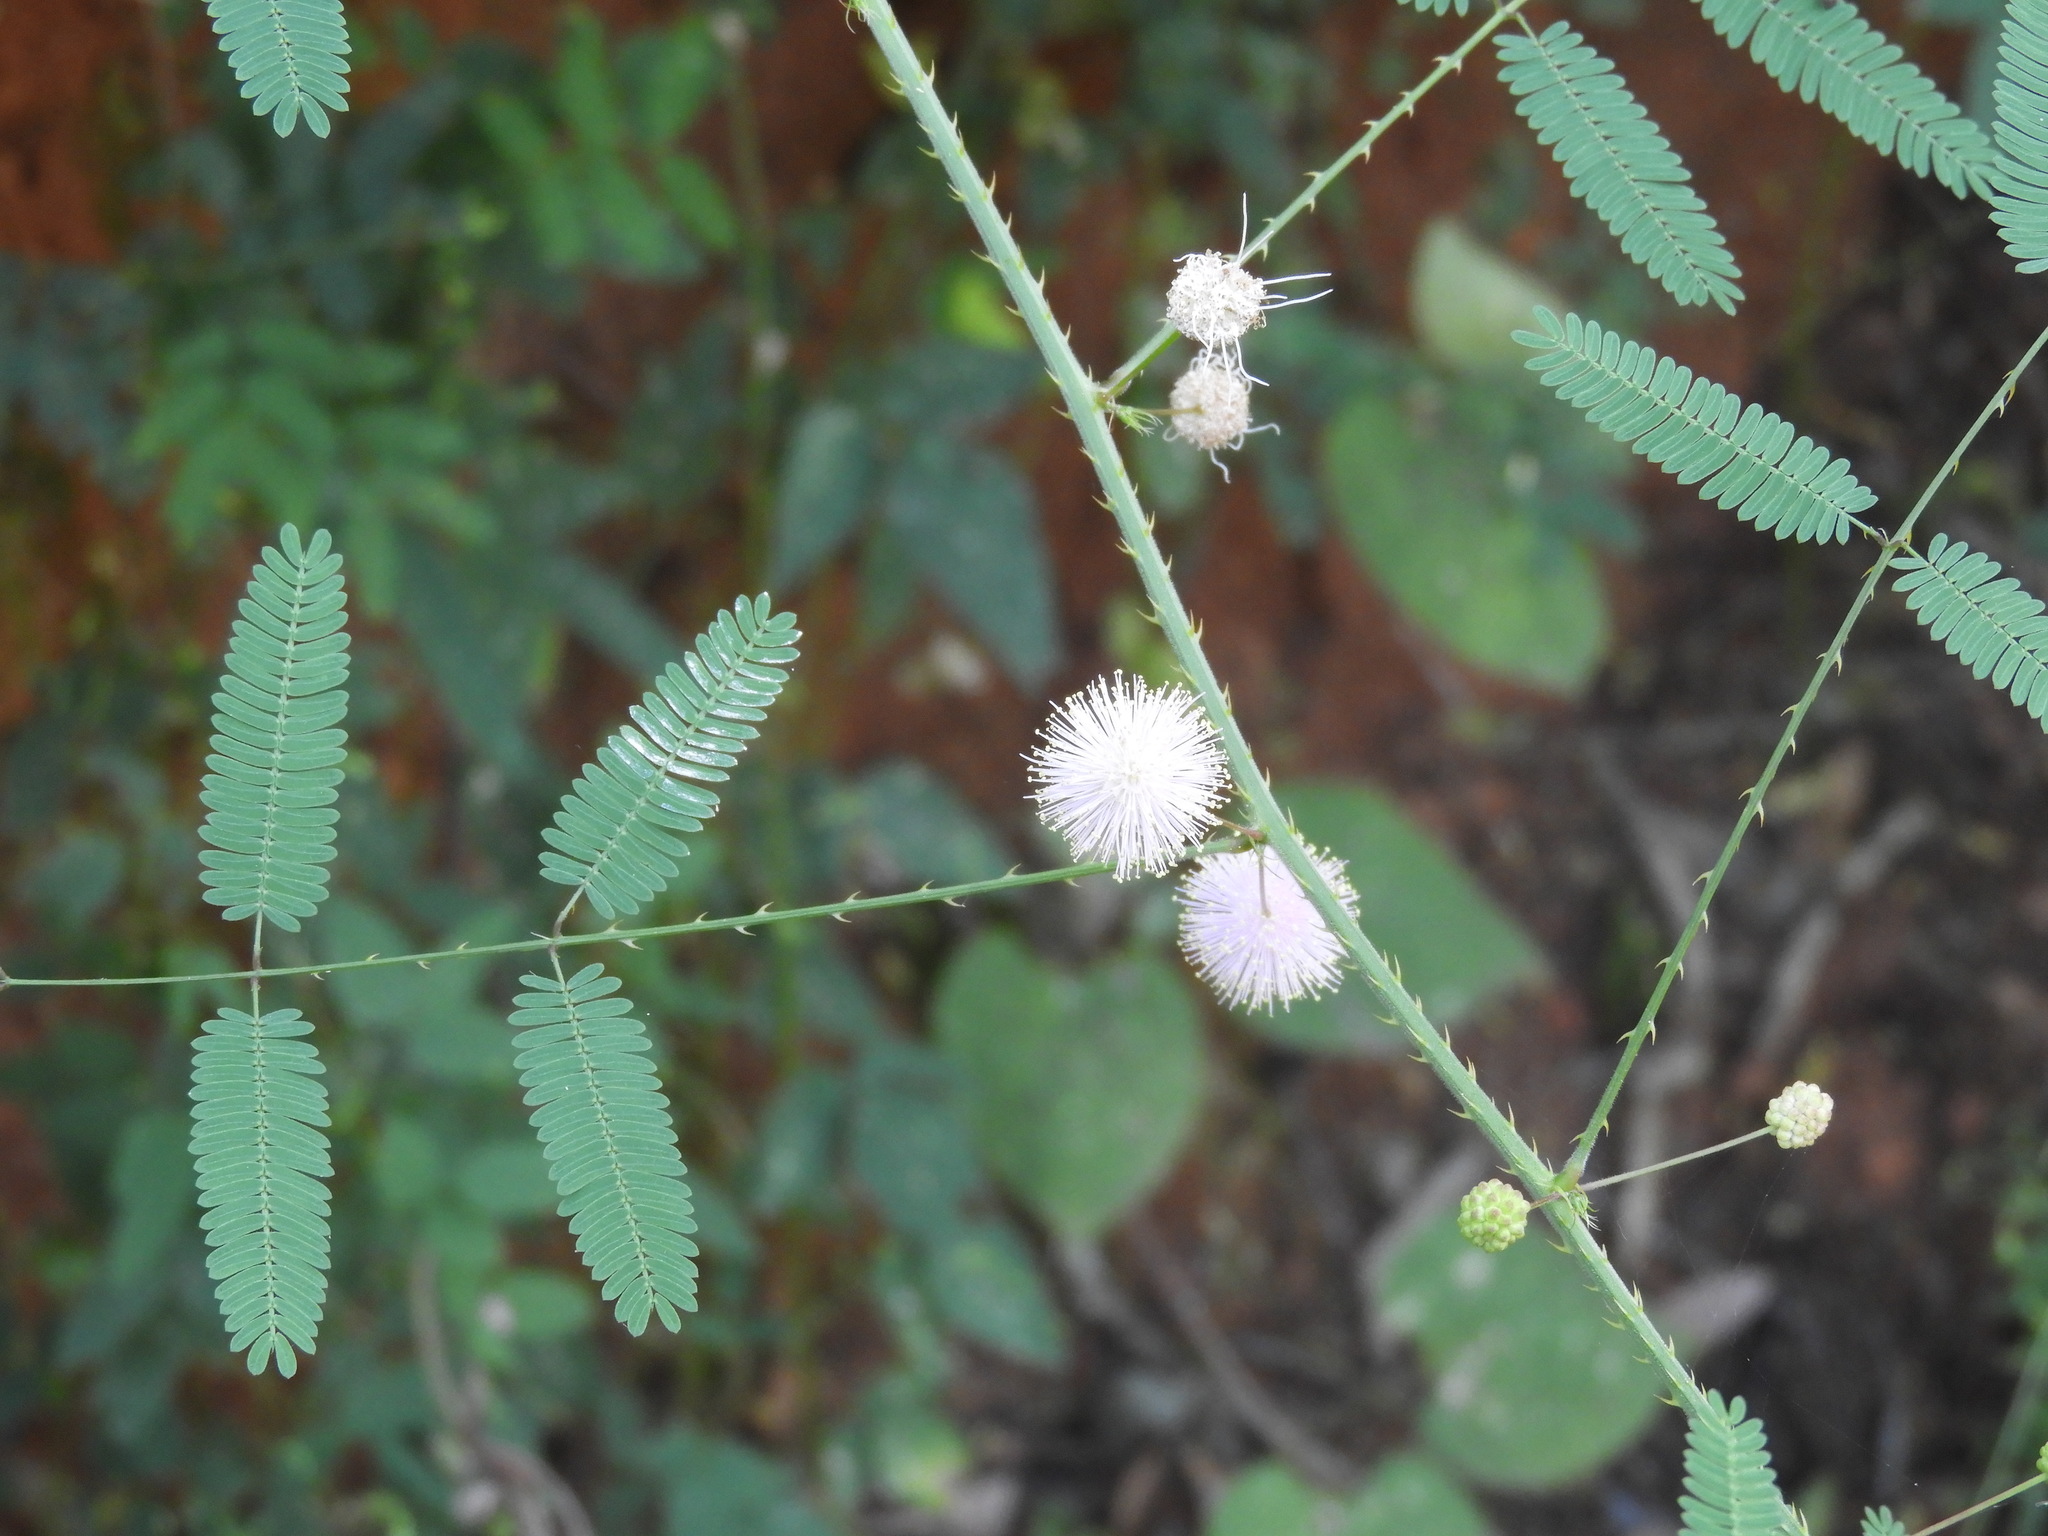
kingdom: Plantae
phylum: Tracheophyta
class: Magnoliopsida
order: Fabales
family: Fabaceae
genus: Mimosa
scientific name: Mimosa quadrivalvis
